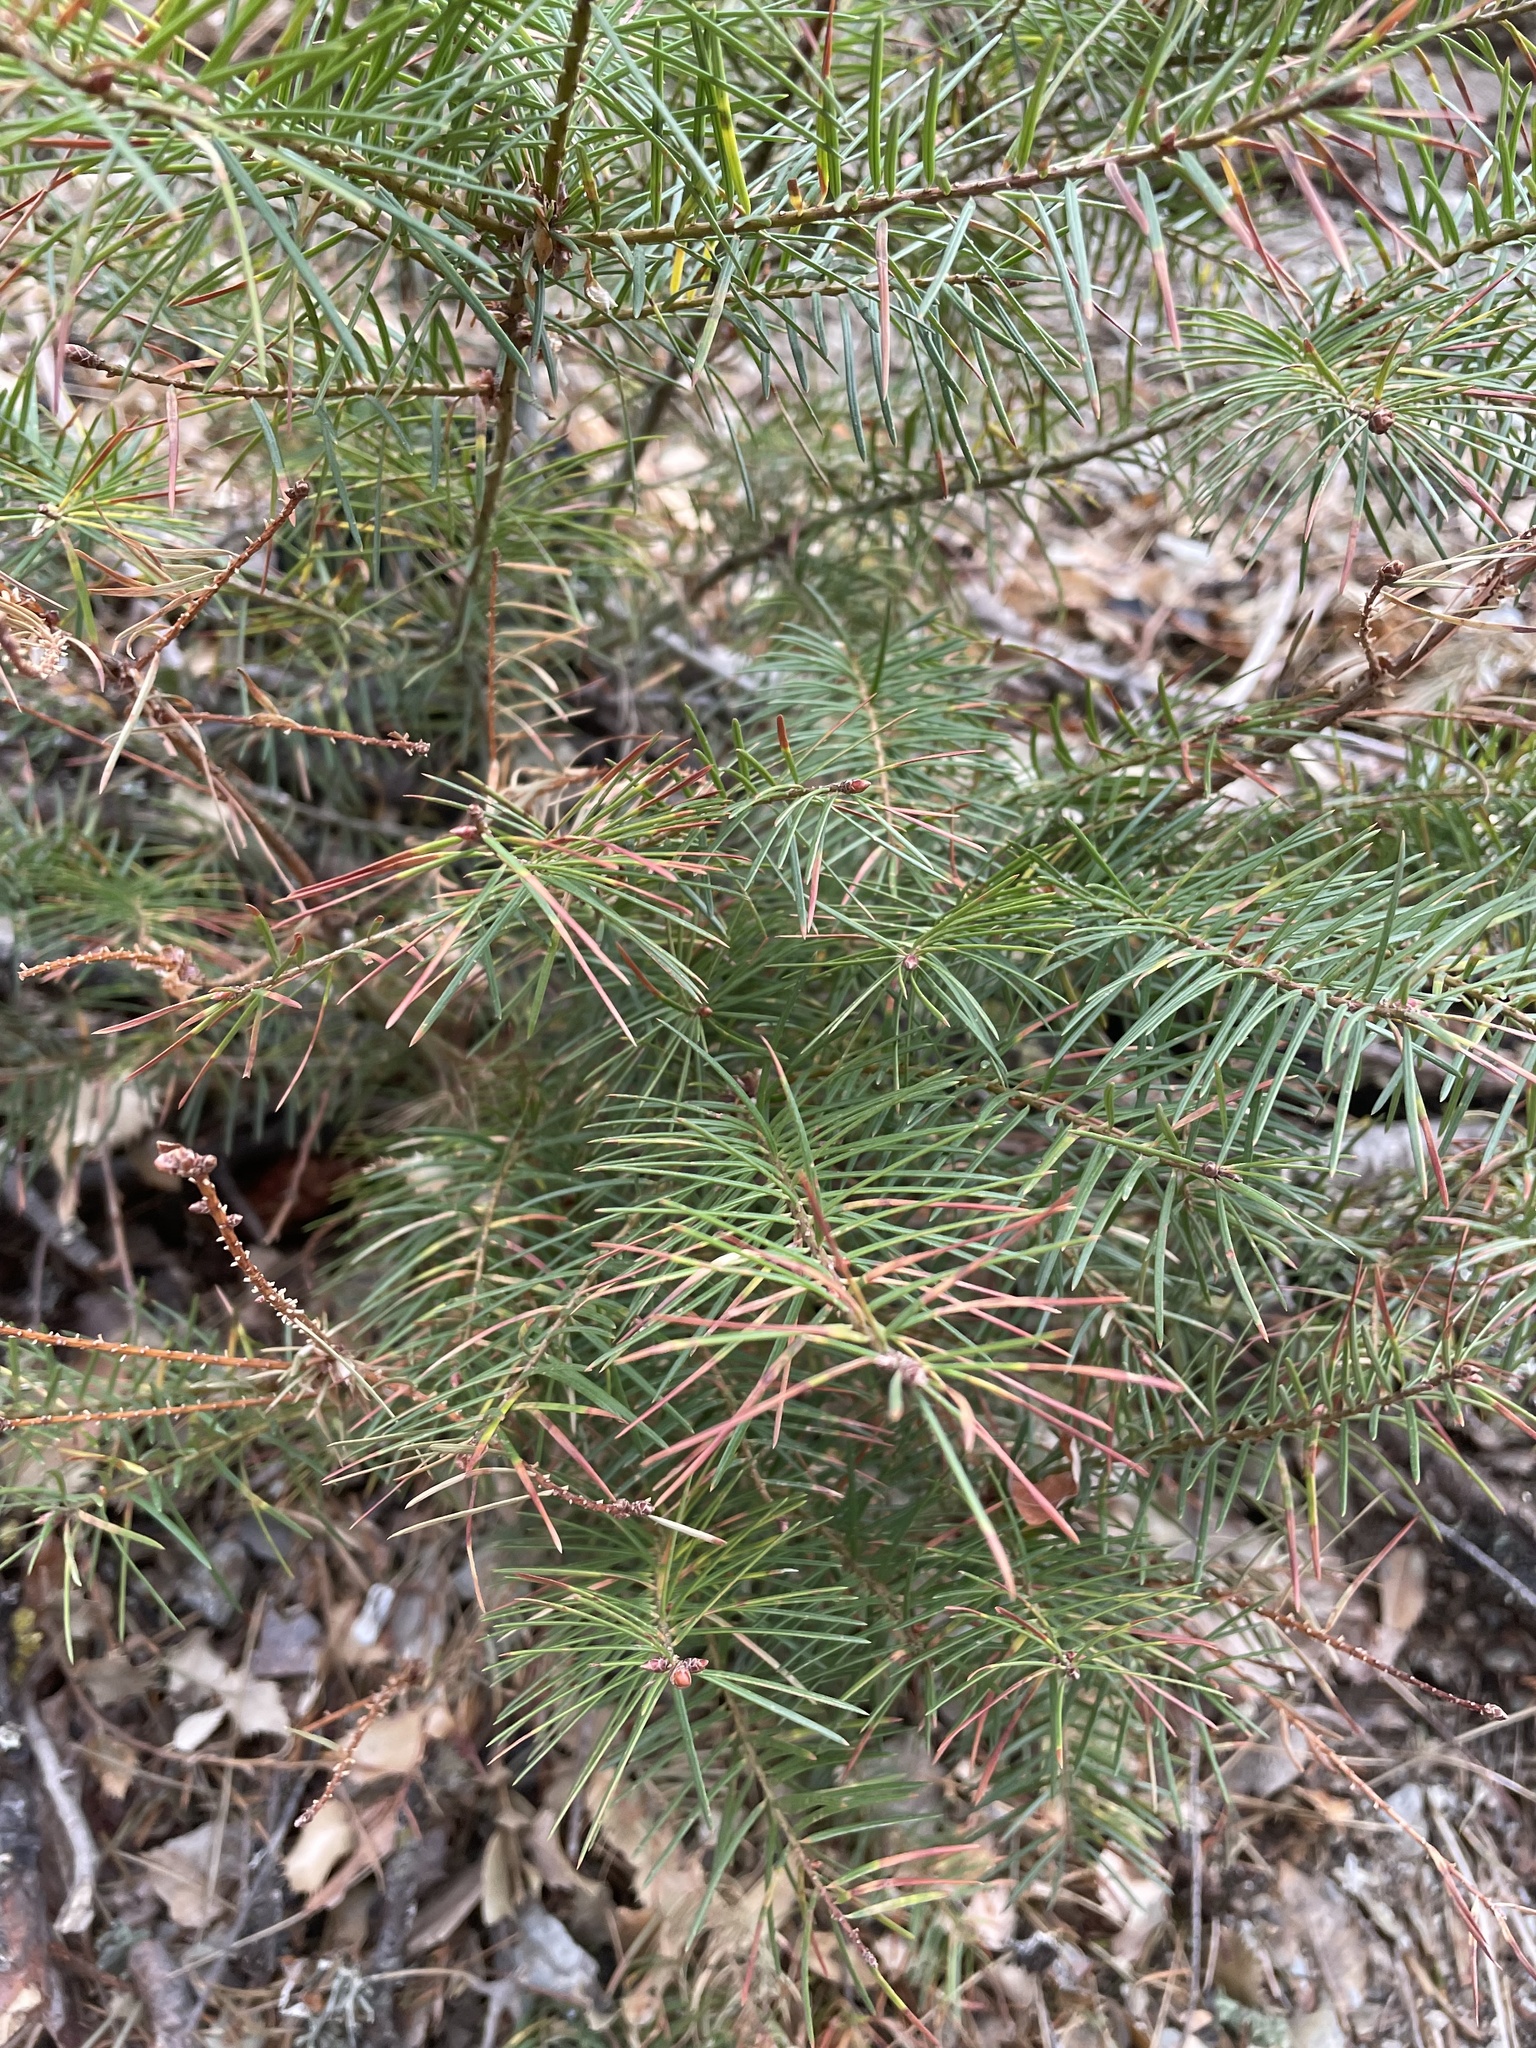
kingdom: Plantae
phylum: Tracheophyta
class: Pinopsida
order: Pinales
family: Pinaceae
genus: Pseudotsuga
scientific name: Pseudotsuga menziesii
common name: Douglas fir
